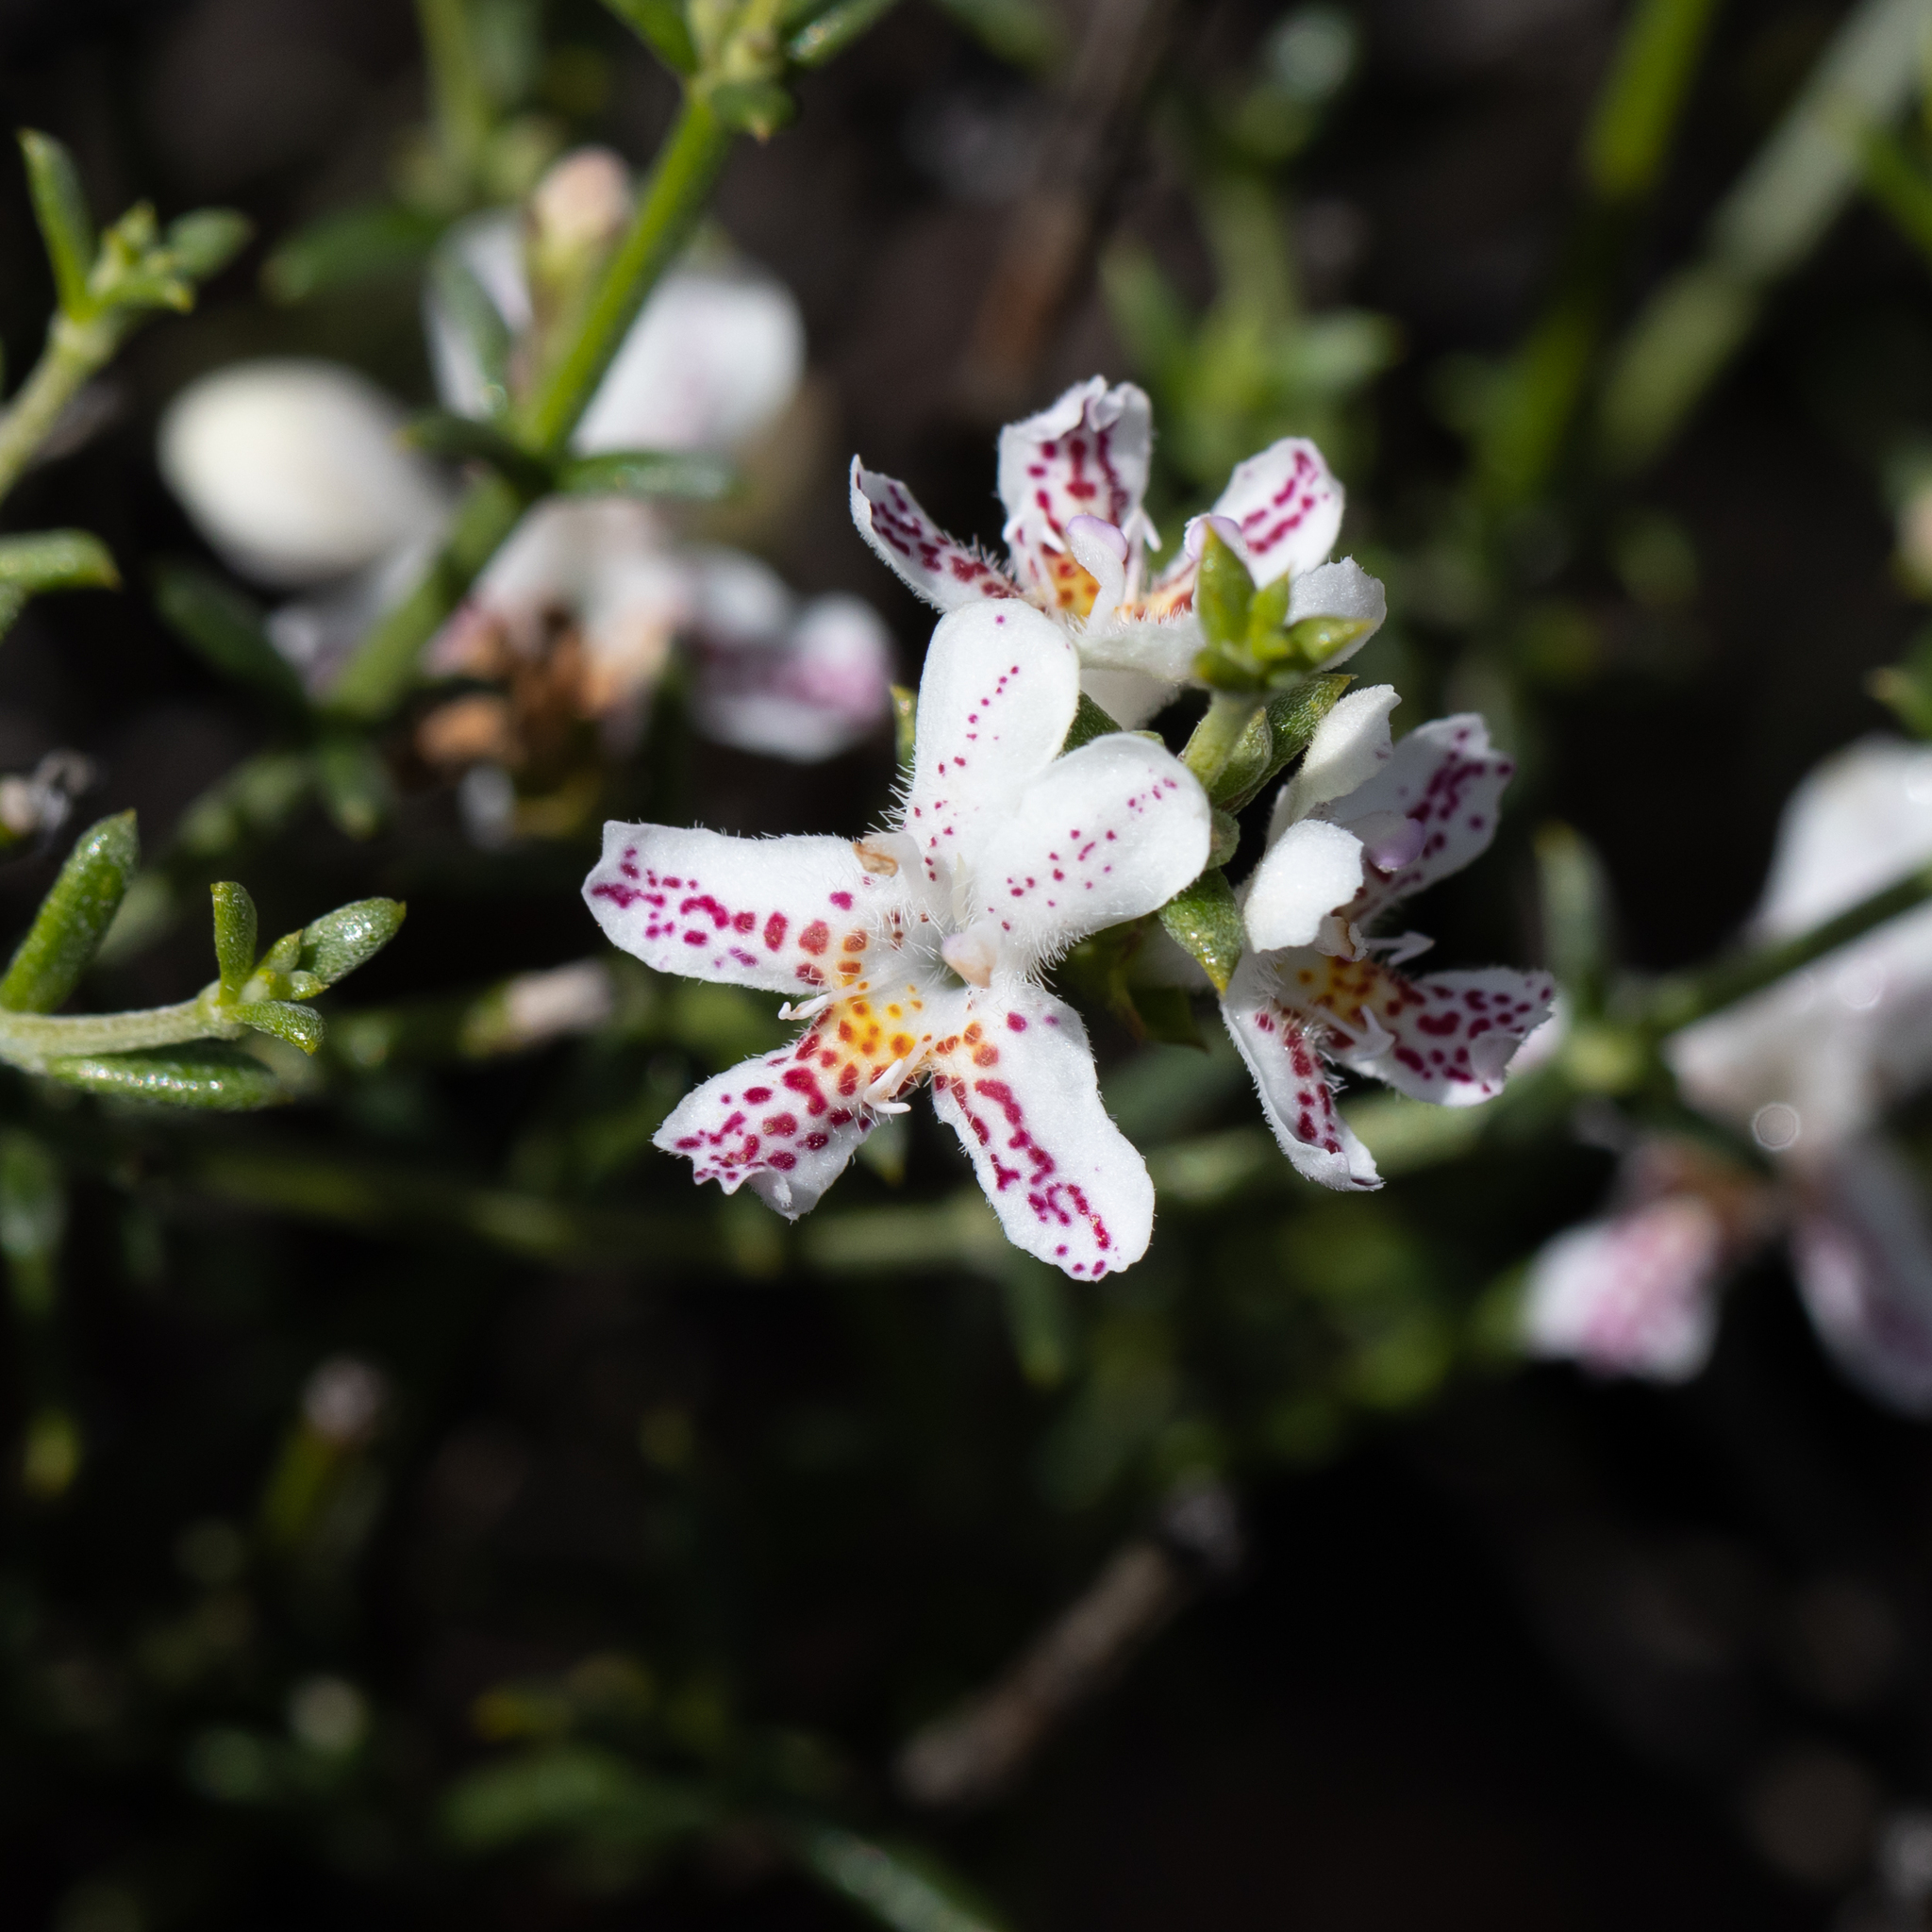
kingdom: Plantae
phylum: Tracheophyta
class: Magnoliopsida
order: Lamiales
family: Lamiaceae
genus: Westringia
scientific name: Westringia rigida
